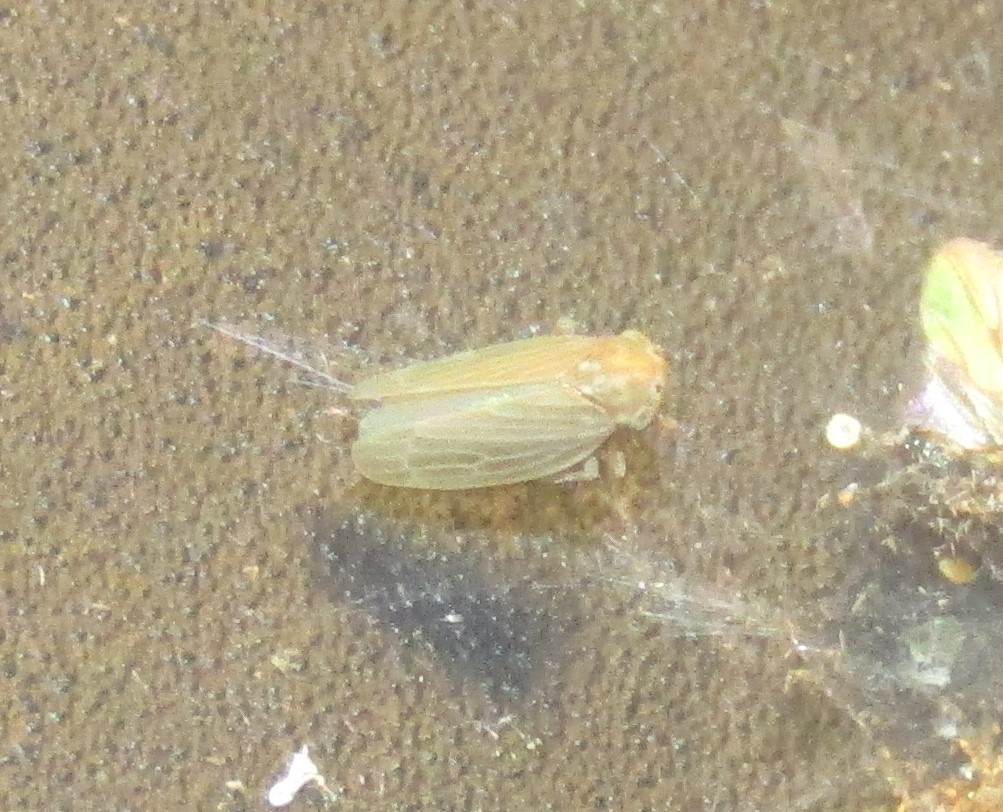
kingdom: Animalia
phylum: Arthropoda
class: Insecta
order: Hemiptera
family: Cicadellidae
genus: Agalliota
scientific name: Agalliota quadripunctata
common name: The four-spotted clover leafhopper
